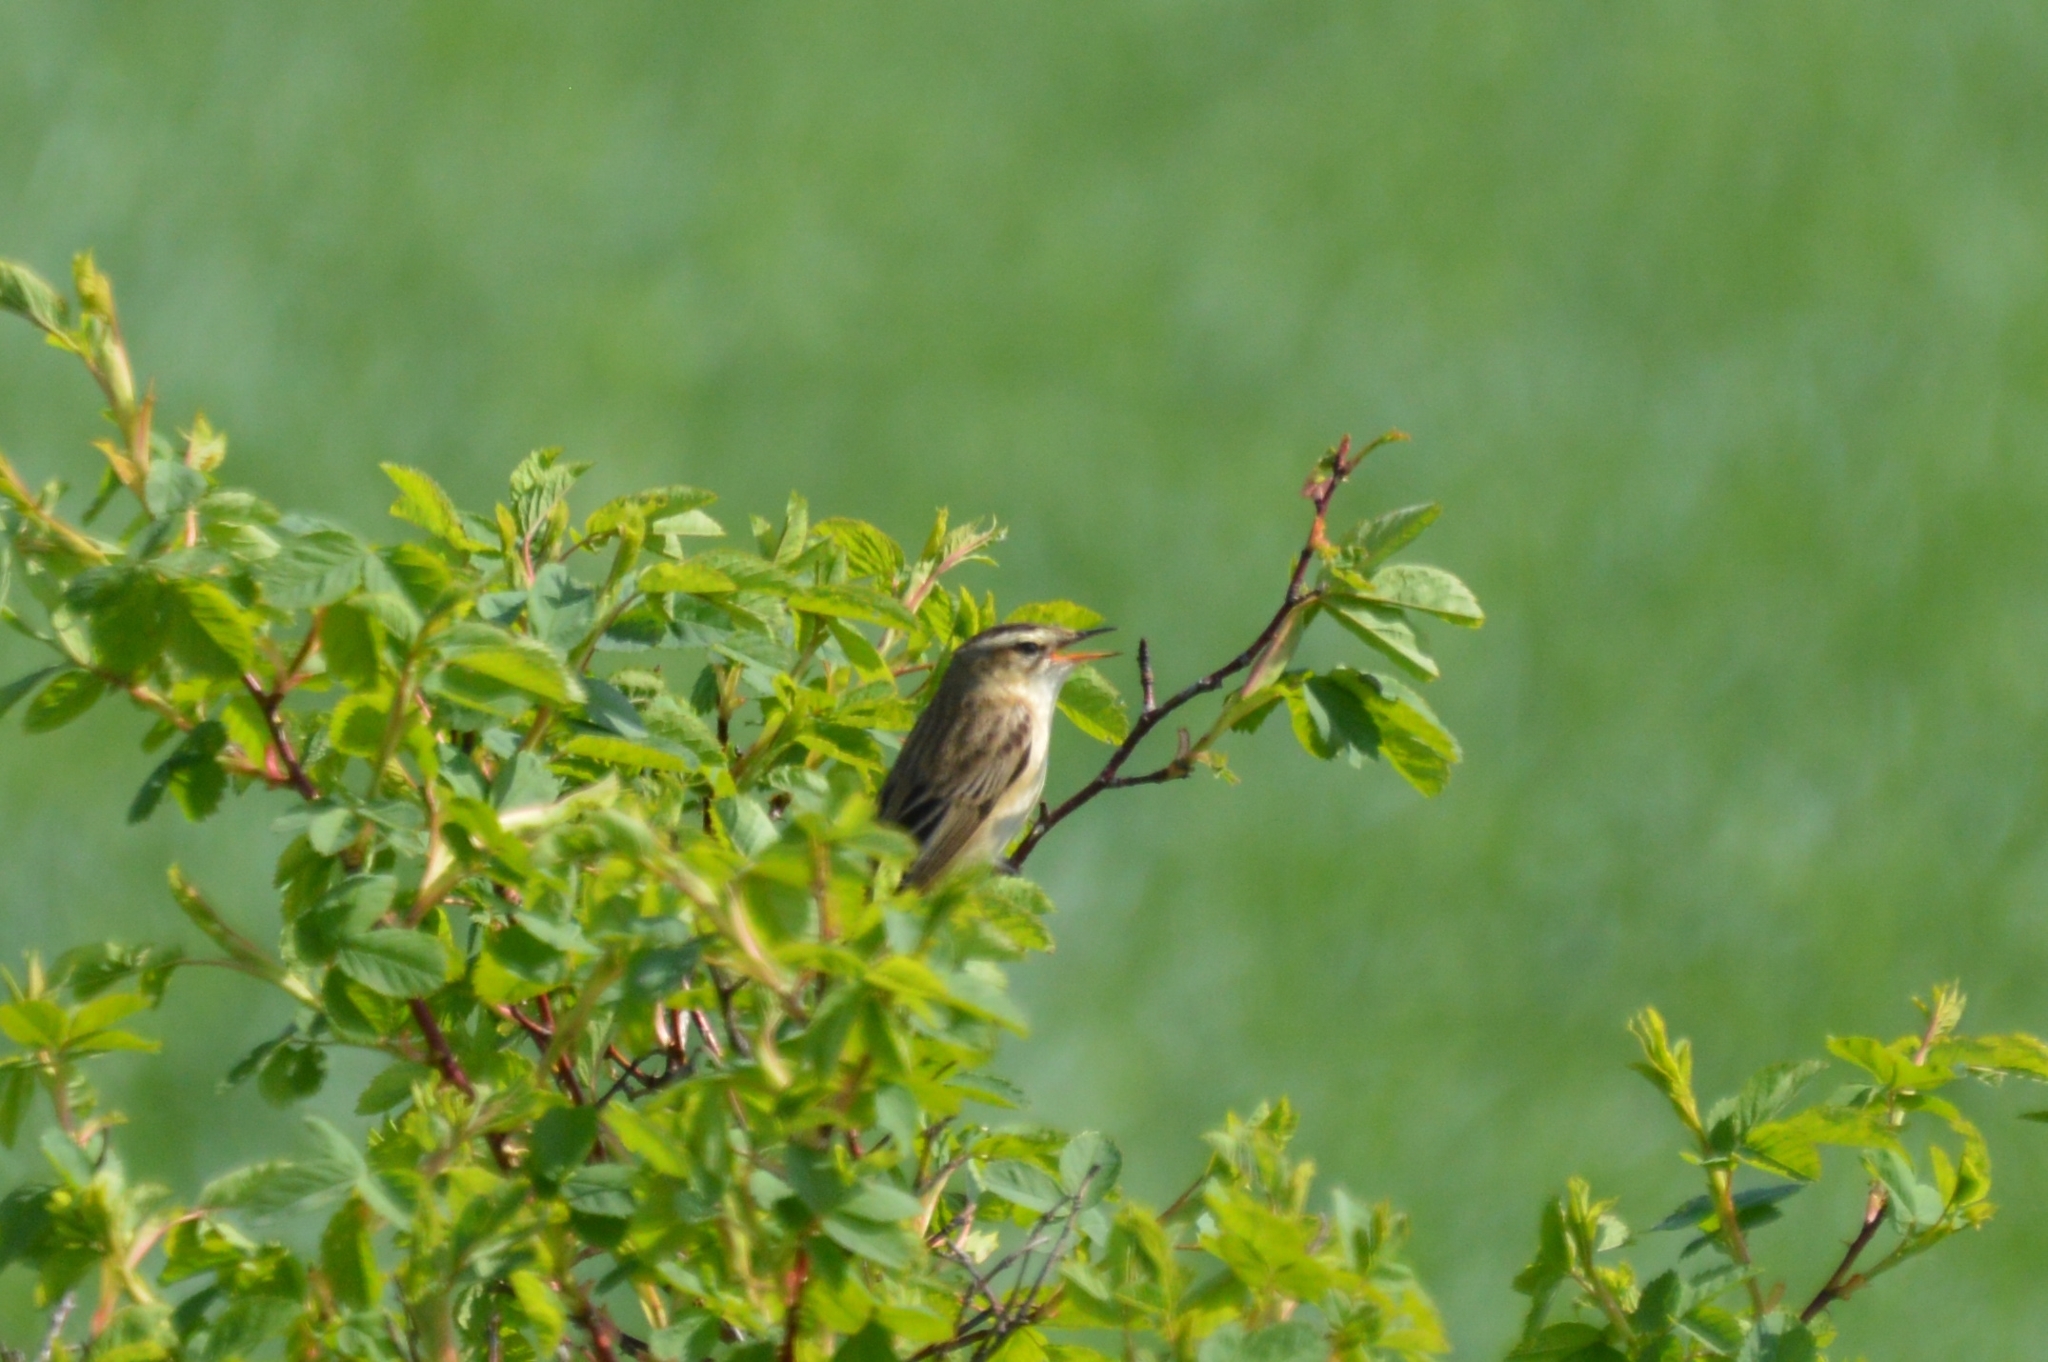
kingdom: Animalia
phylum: Chordata
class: Aves
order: Passeriformes
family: Acrocephalidae
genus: Acrocephalus
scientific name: Acrocephalus schoenobaenus
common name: Sedge warbler
